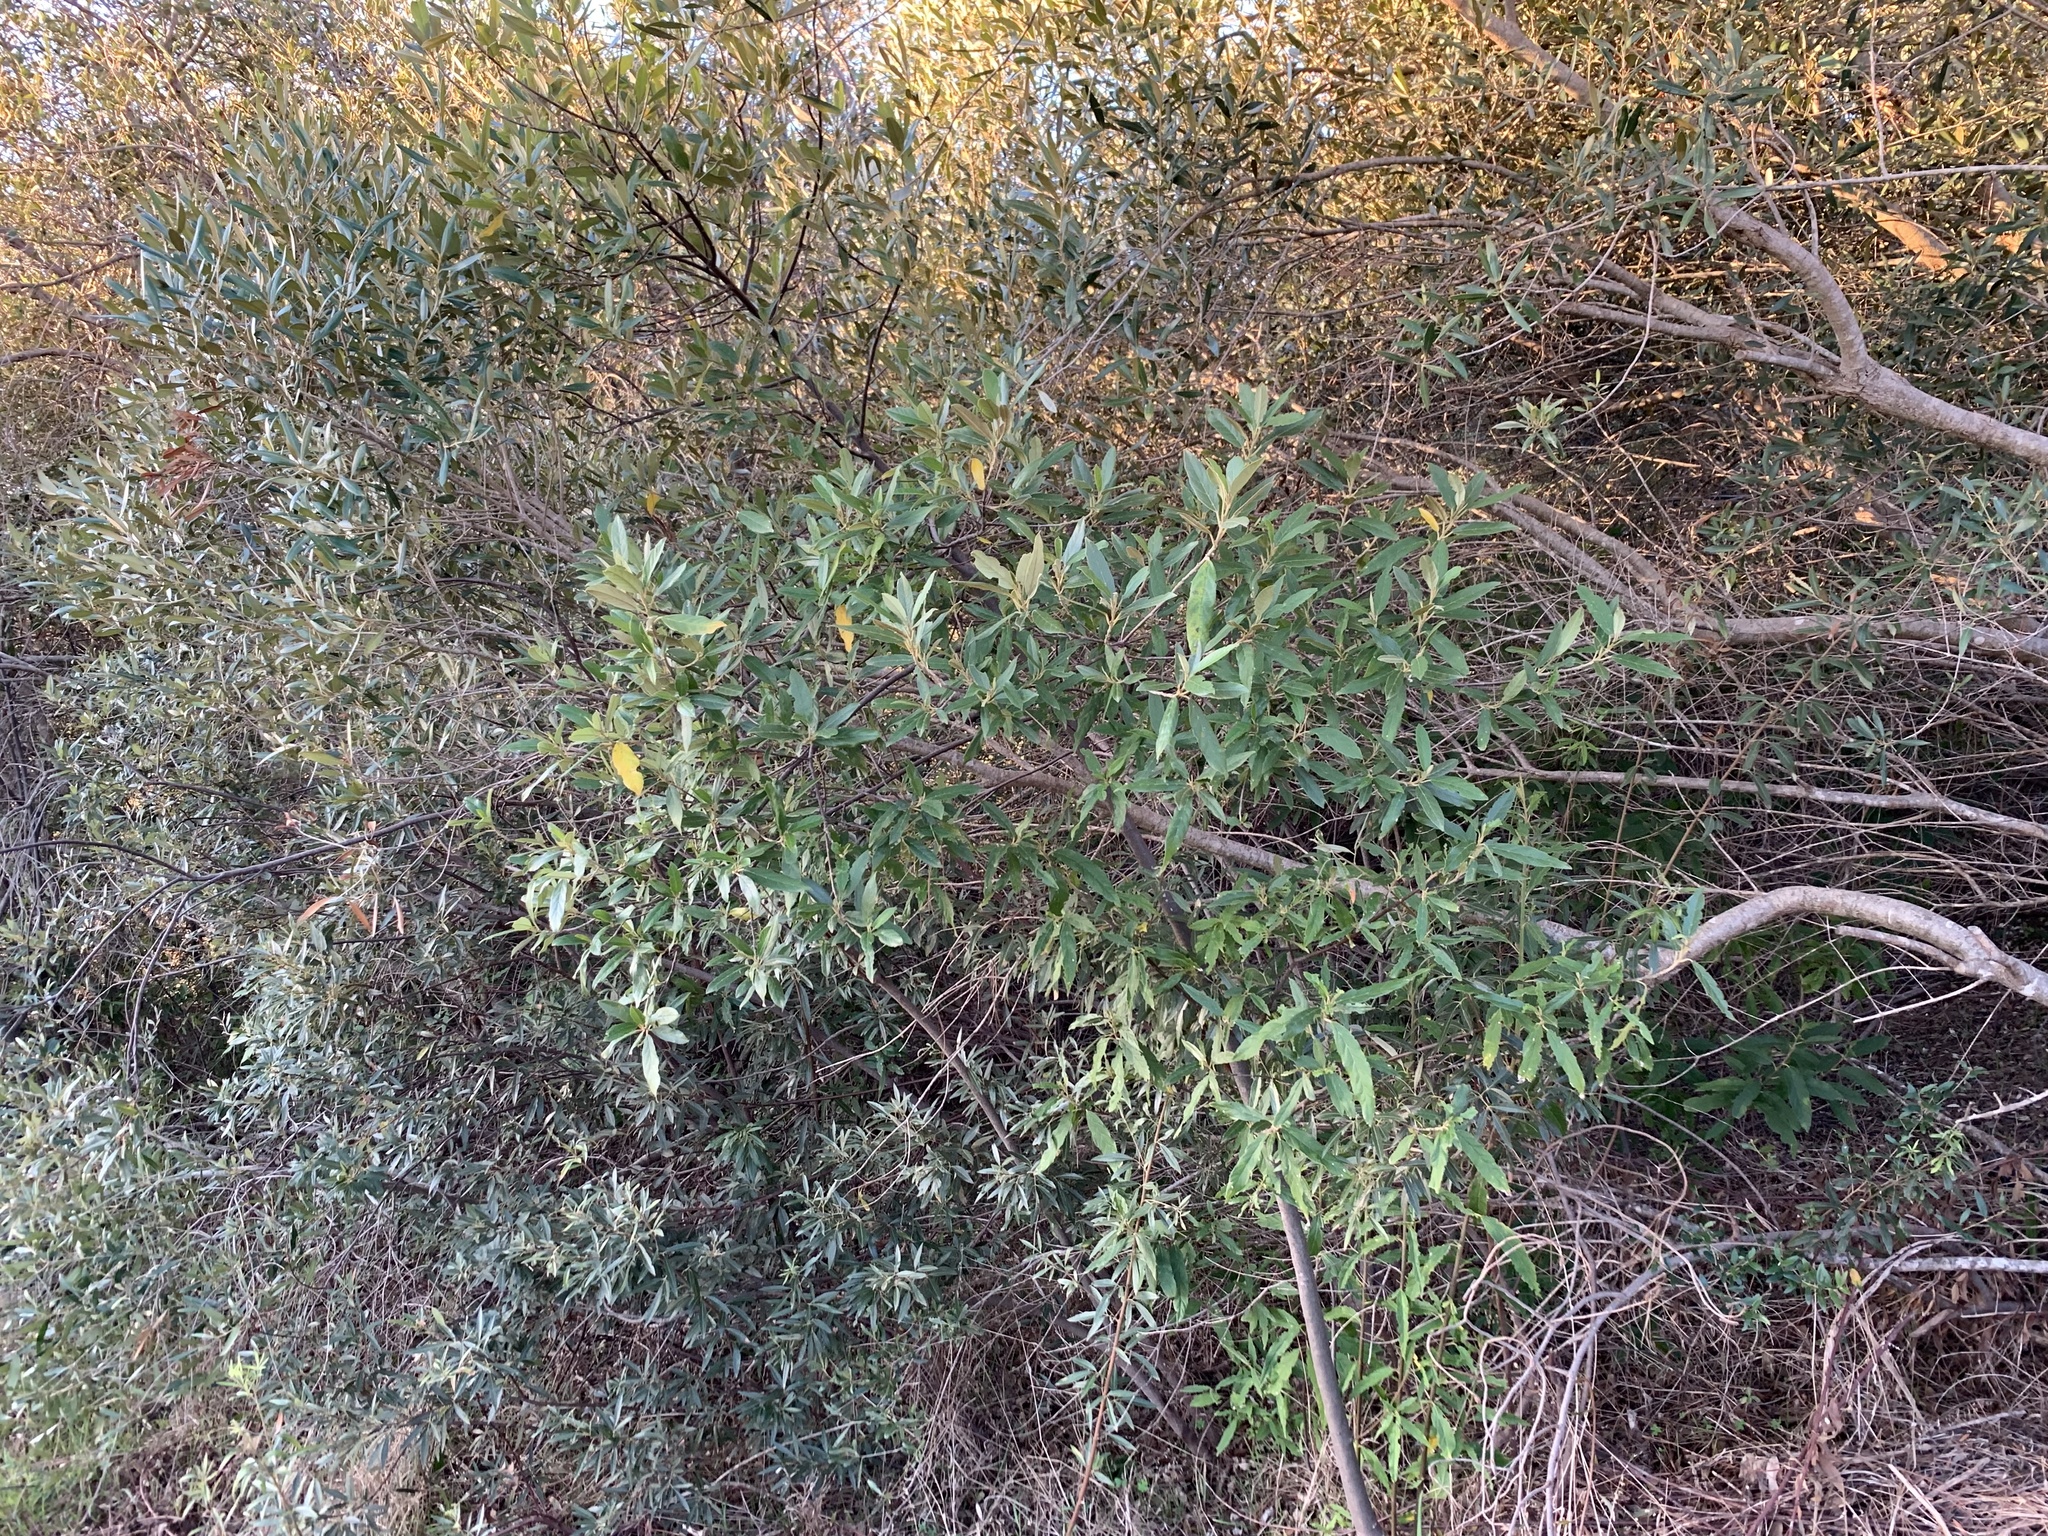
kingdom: Plantae
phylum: Tracheophyta
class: Magnoliopsida
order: Malpighiales
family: Achariaceae
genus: Kiggelaria
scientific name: Kiggelaria africana
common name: Wild peach
